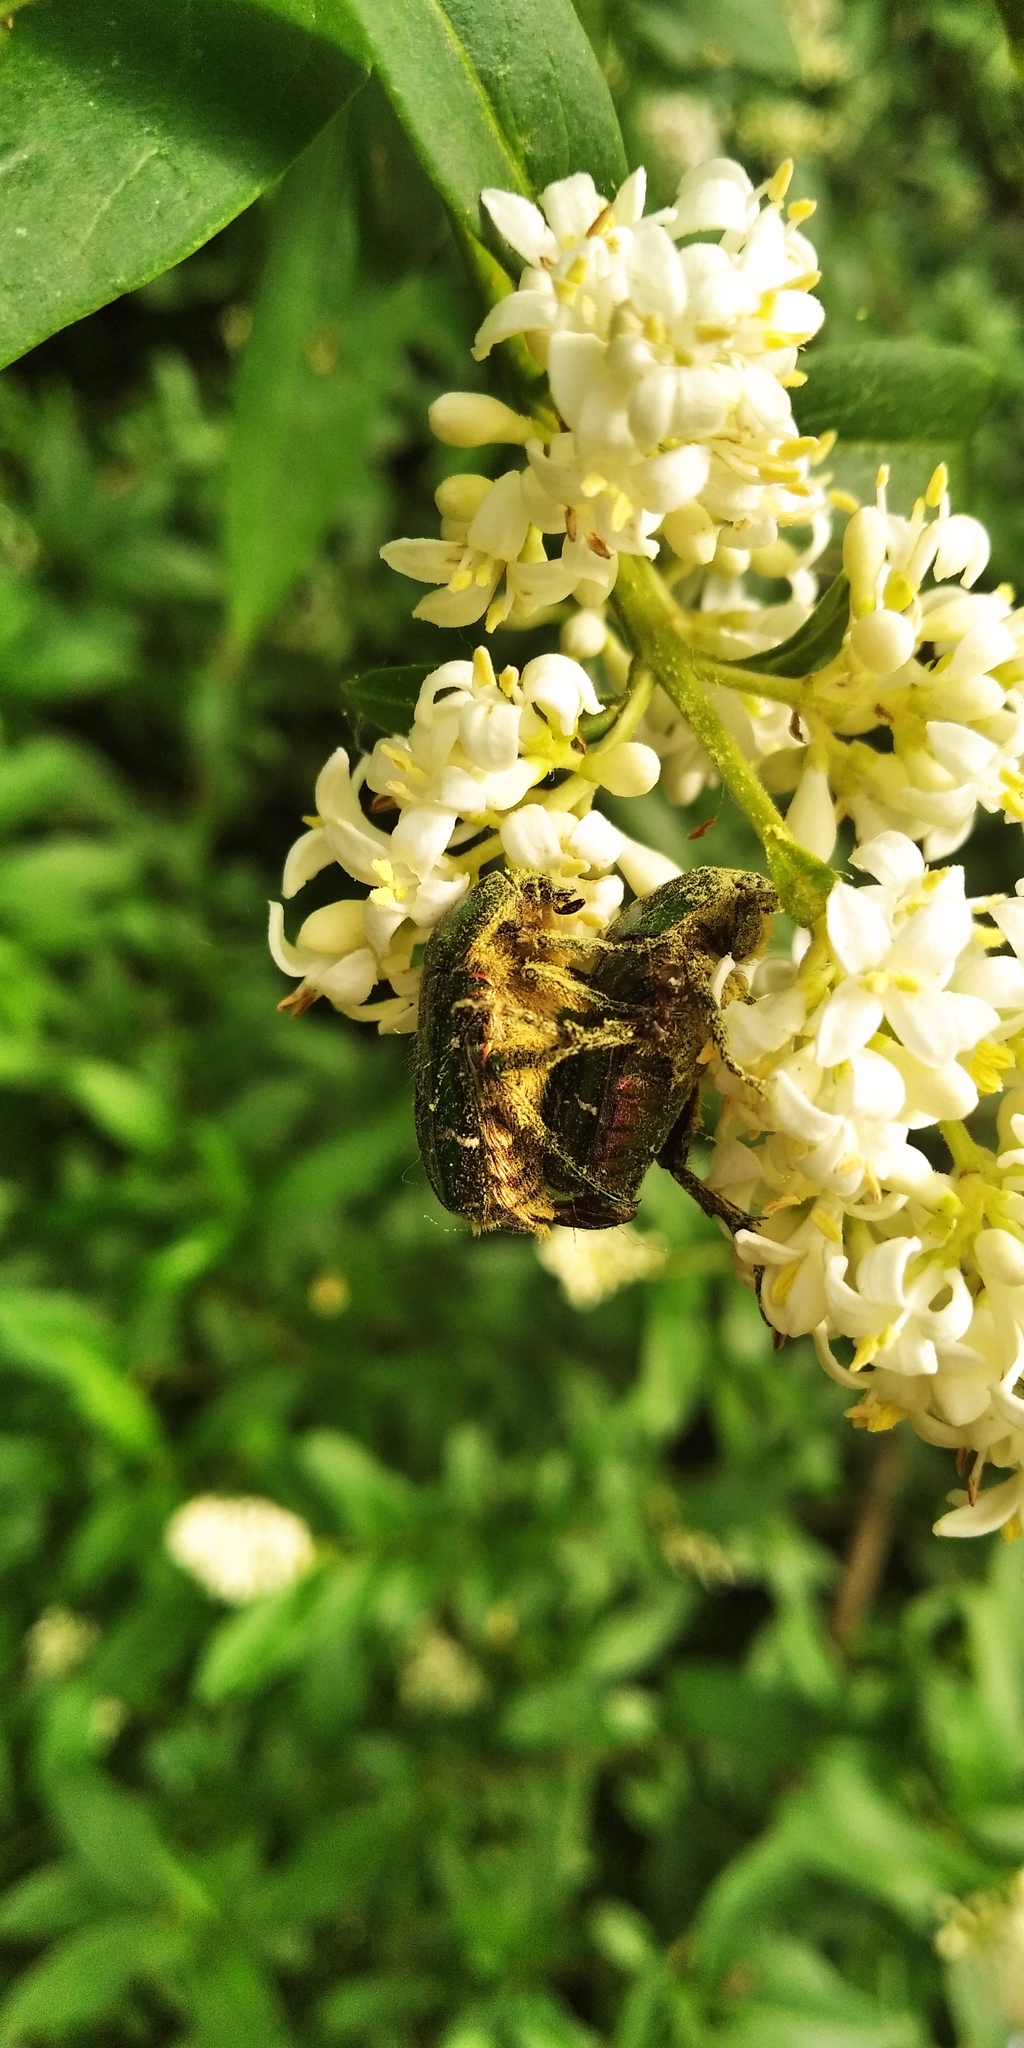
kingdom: Animalia
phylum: Arthropoda
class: Insecta
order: Coleoptera
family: Scarabaeidae
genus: Cetonia
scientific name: Cetonia aurata
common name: Rose chafer
